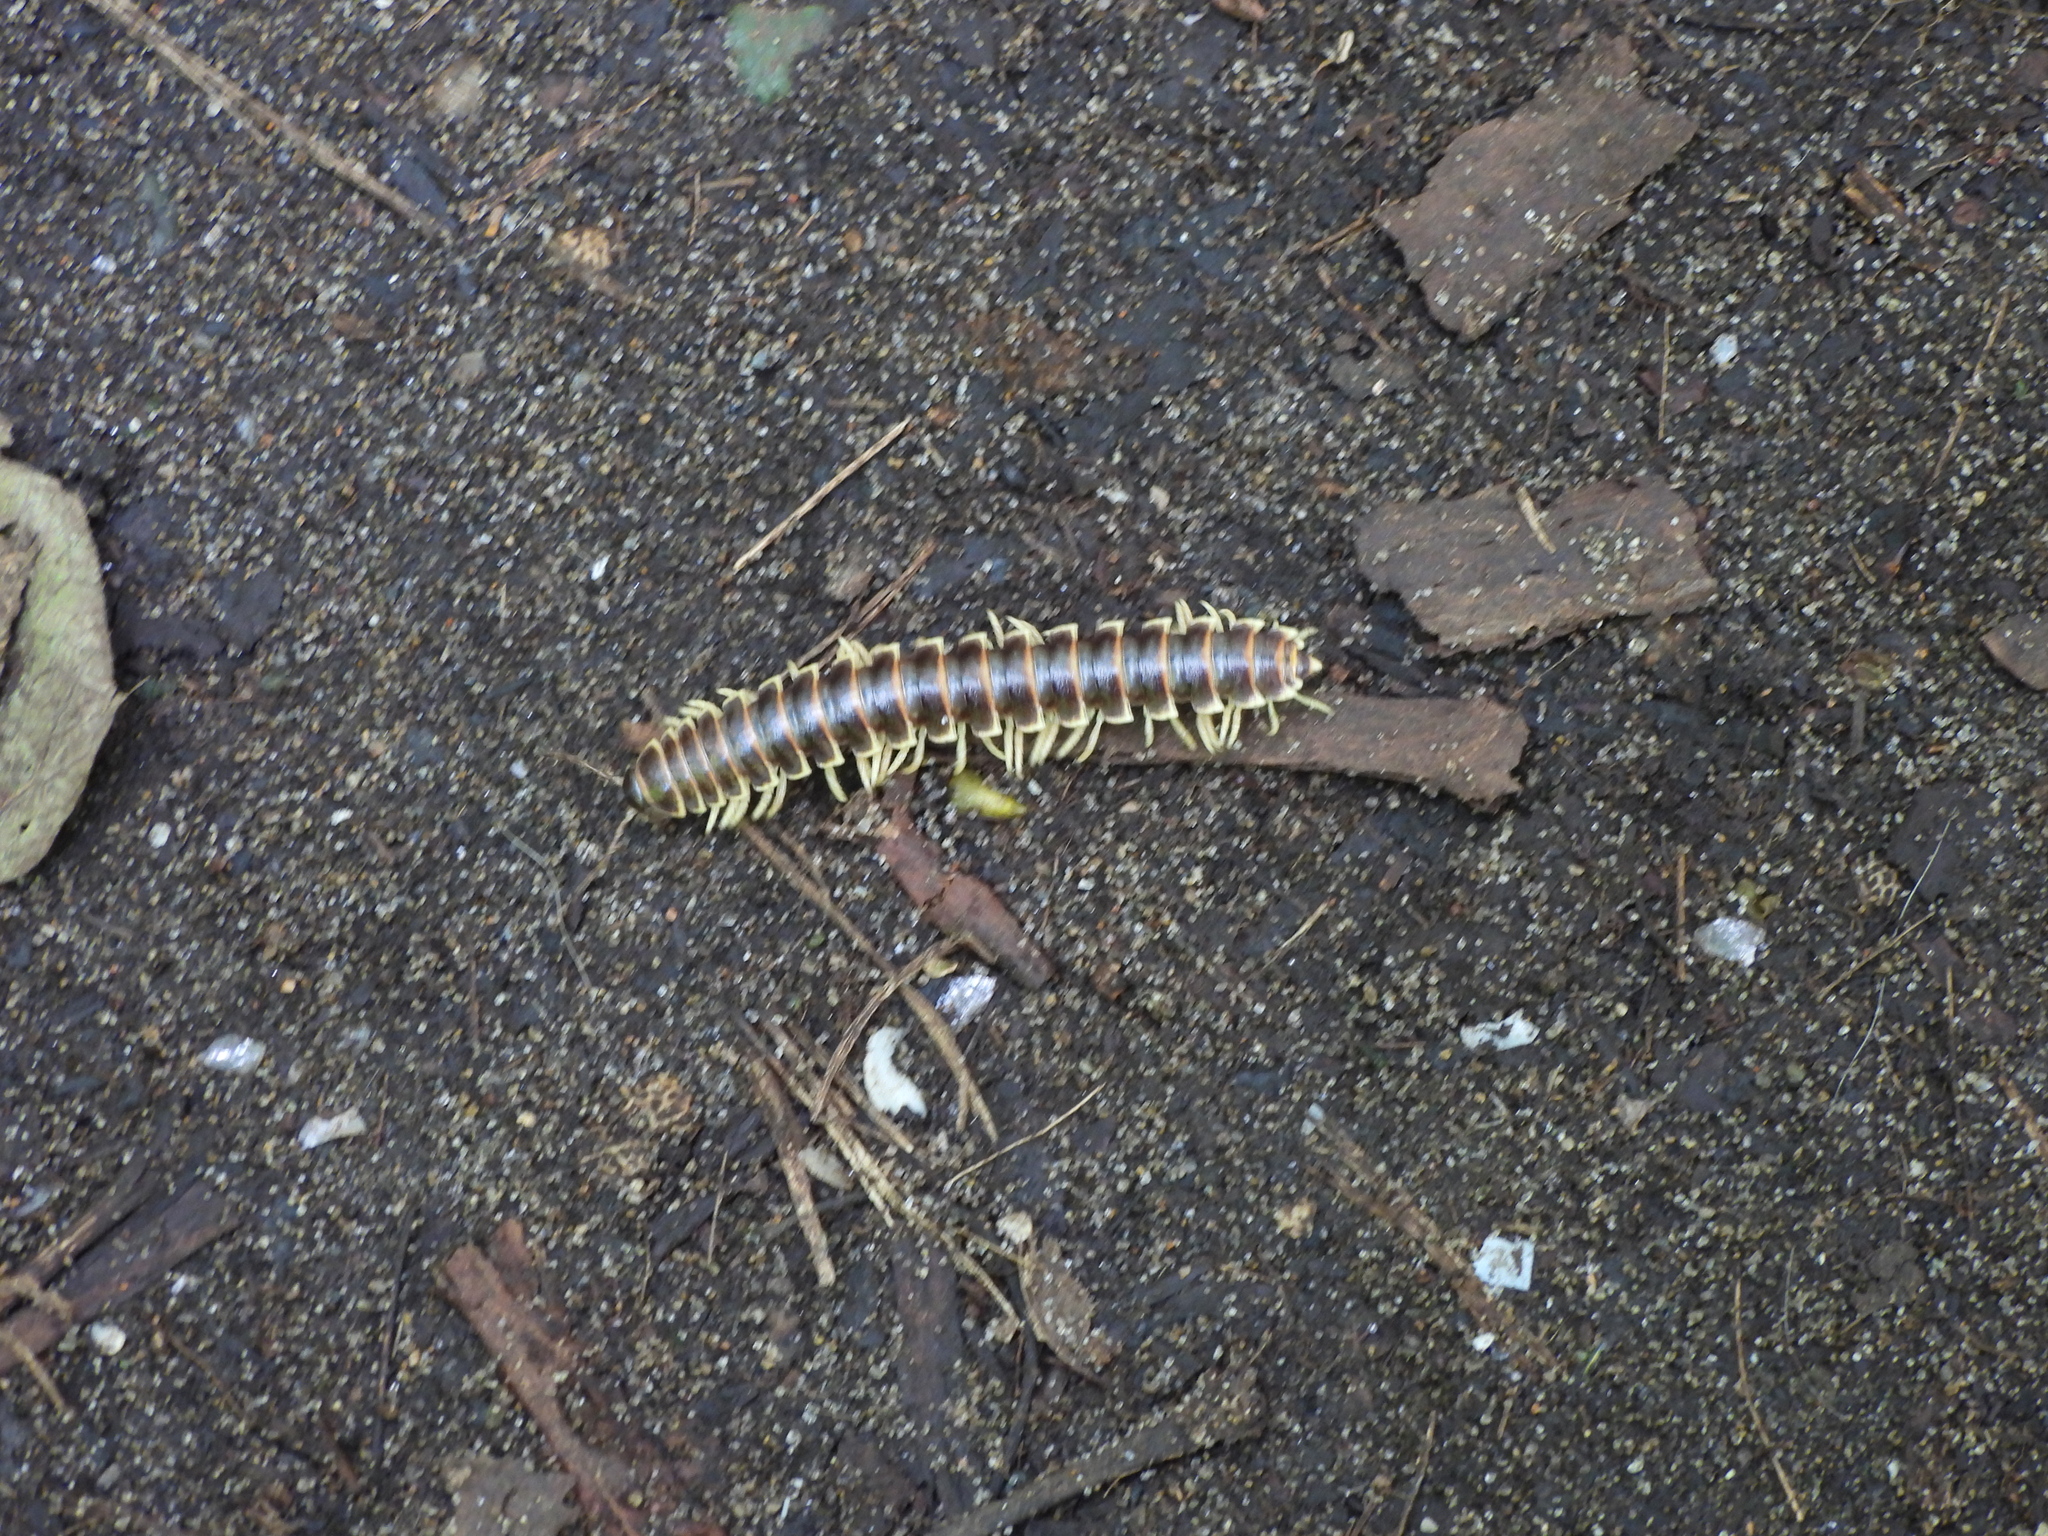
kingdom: Animalia
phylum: Arthropoda
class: Diplopoda
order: Polydesmida
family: Xystodesmidae
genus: Pleuroloma
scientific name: Pleuroloma flavipes
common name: Yellow-legged pleuroloma
